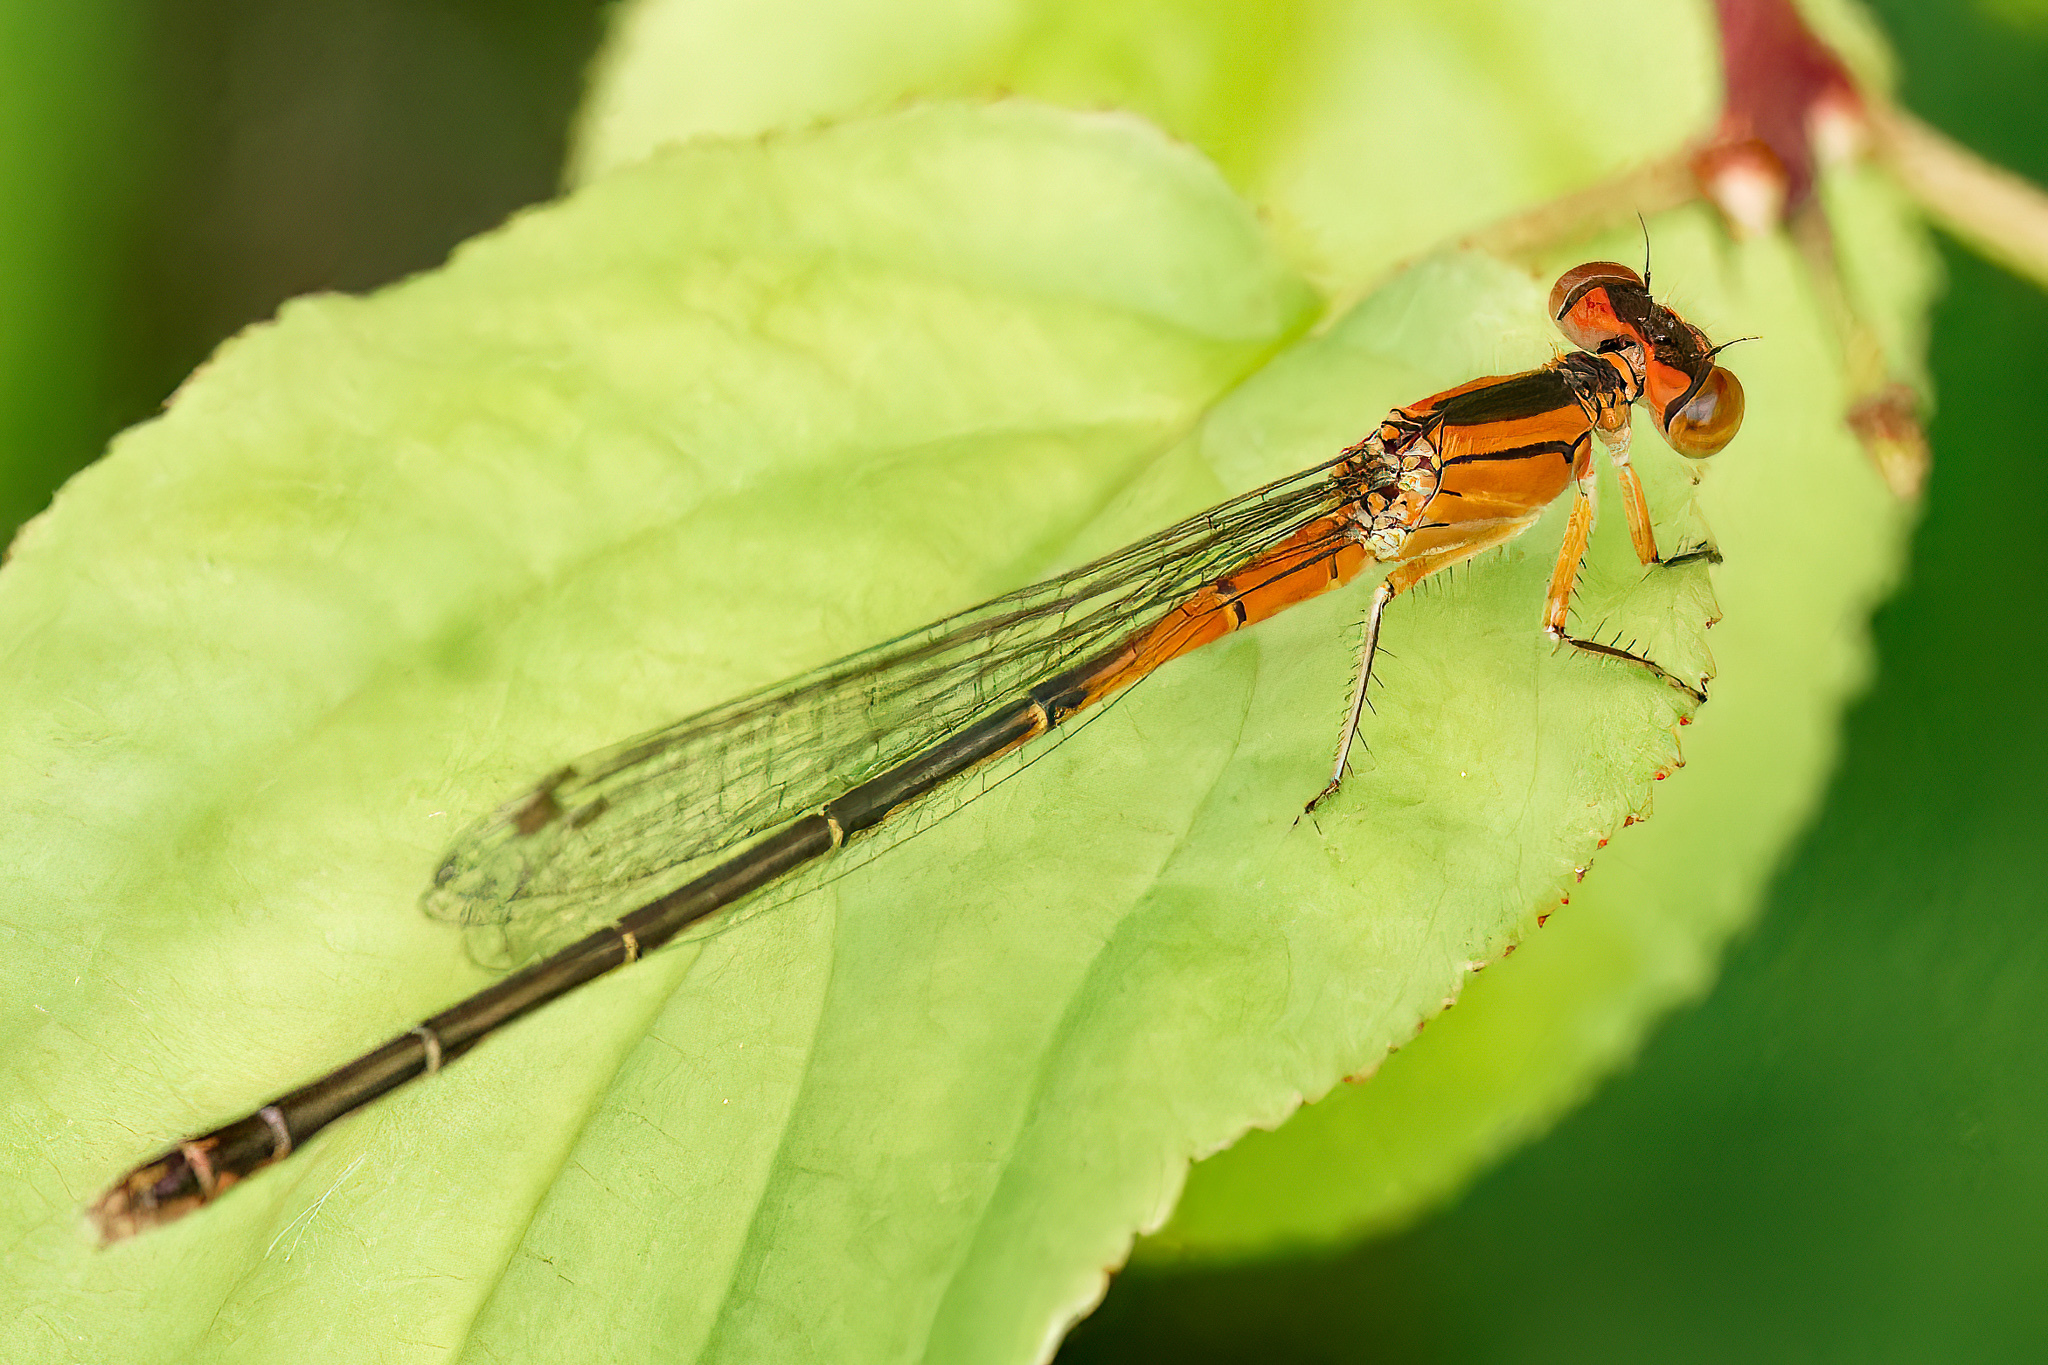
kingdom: Animalia
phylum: Arthropoda
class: Insecta
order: Odonata
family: Coenagrionidae
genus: Ischnura
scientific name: Ischnura verticalis
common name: Eastern forktail
